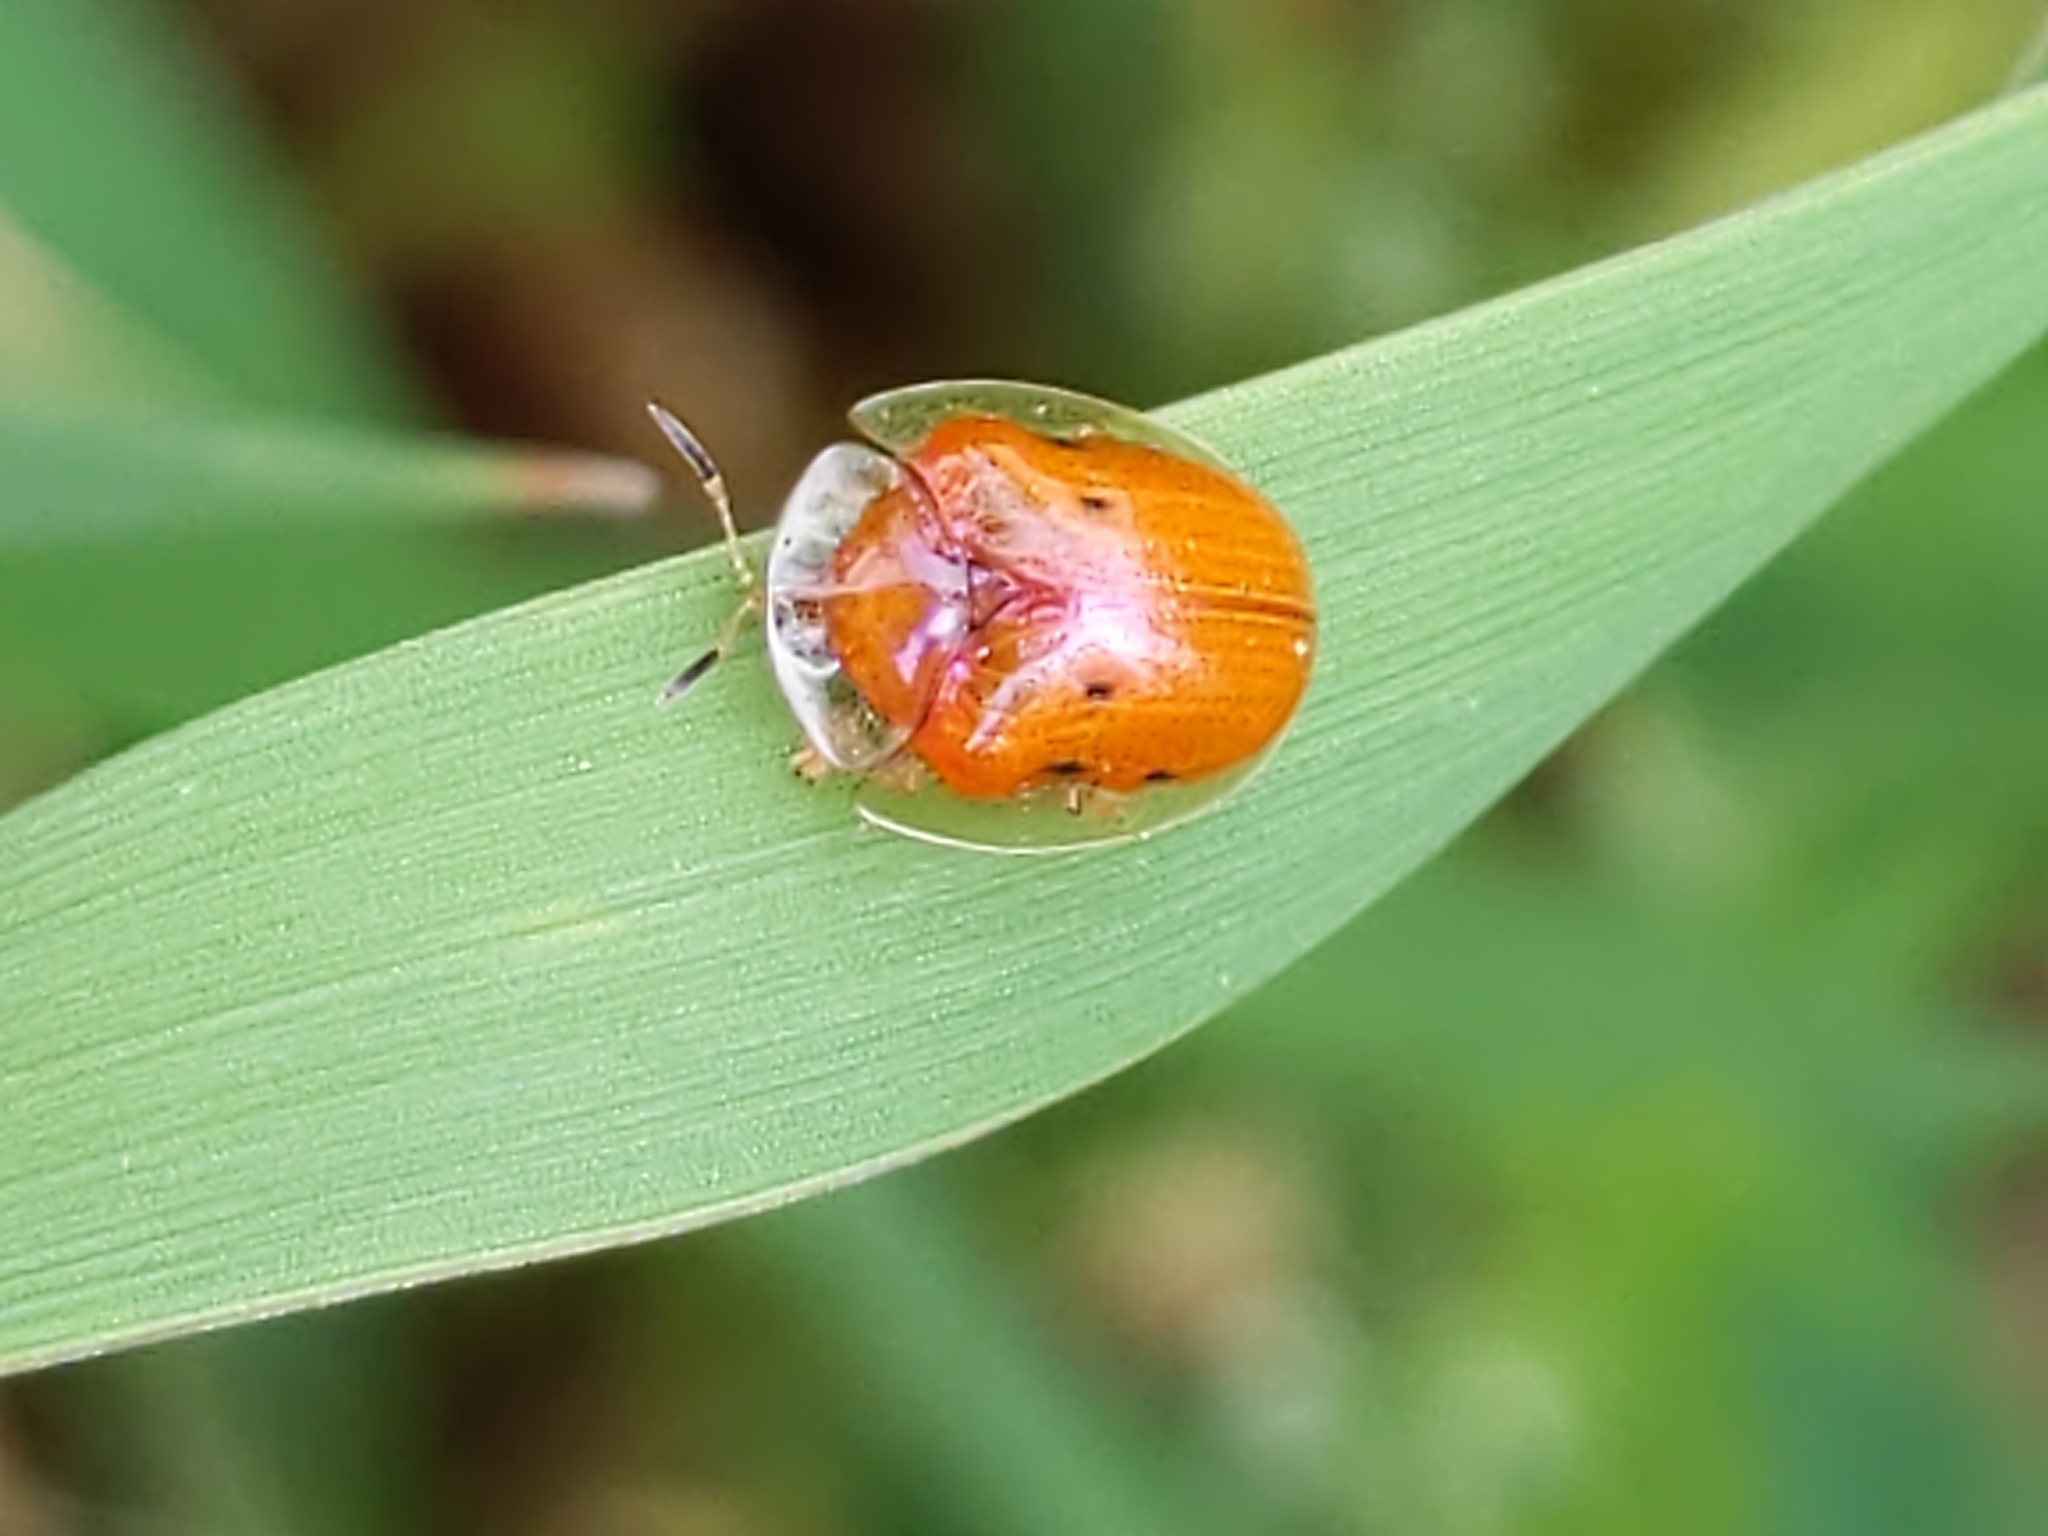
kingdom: Animalia
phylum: Arthropoda
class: Insecta
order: Coleoptera
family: Chrysomelidae
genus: Charidotella
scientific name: Charidotella sexpunctata
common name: Golden tortoise beetle
